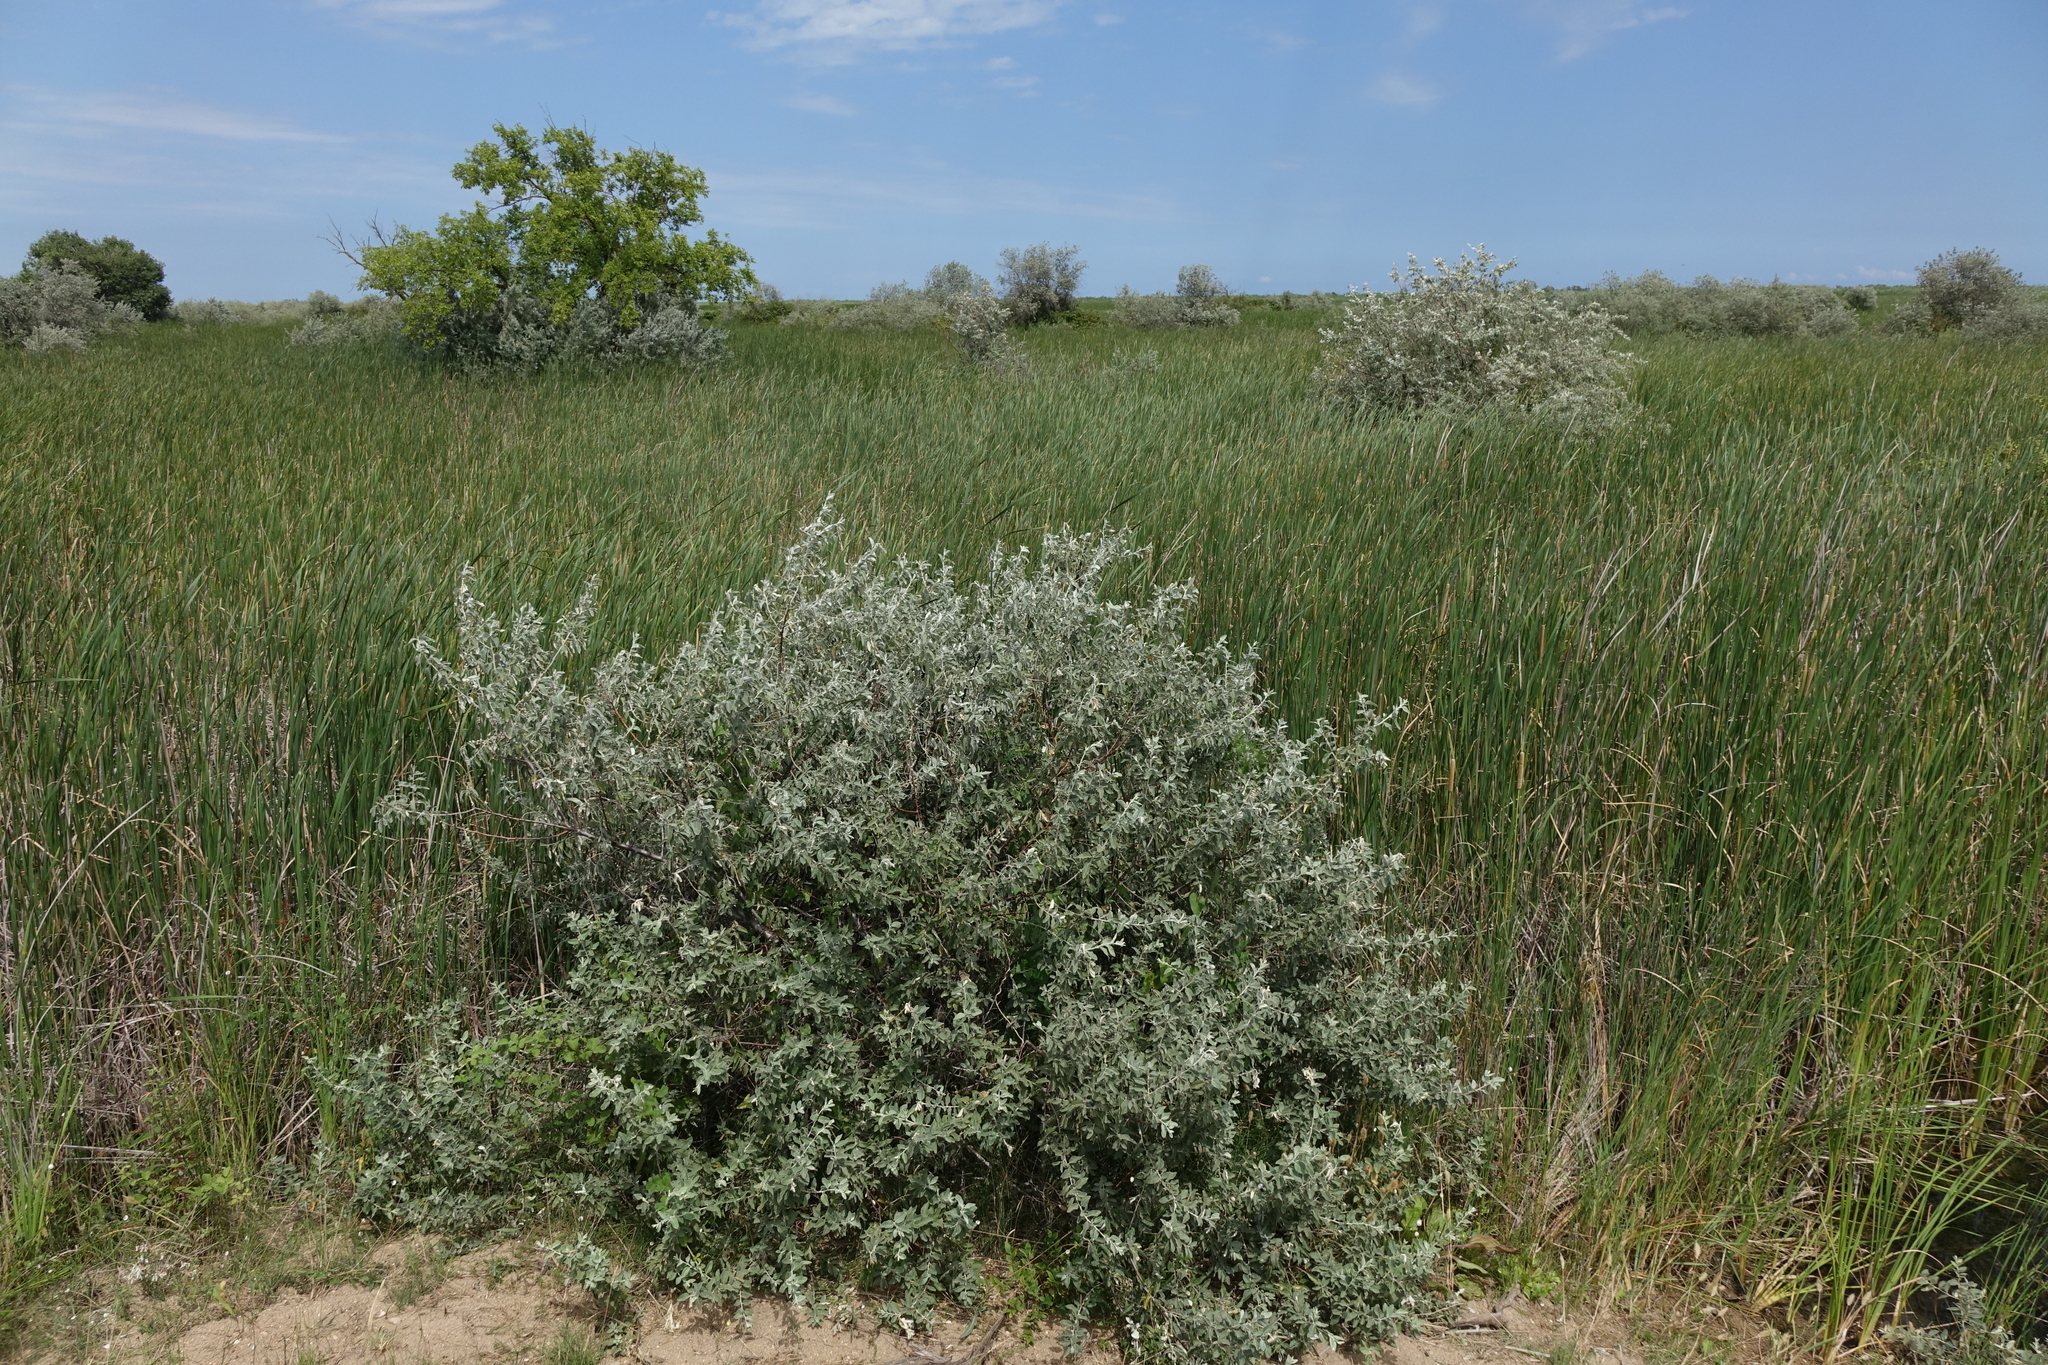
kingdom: Plantae
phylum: Tracheophyta
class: Magnoliopsida
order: Rosales
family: Elaeagnaceae
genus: Elaeagnus
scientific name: Elaeagnus angustifolia
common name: Russian olive
